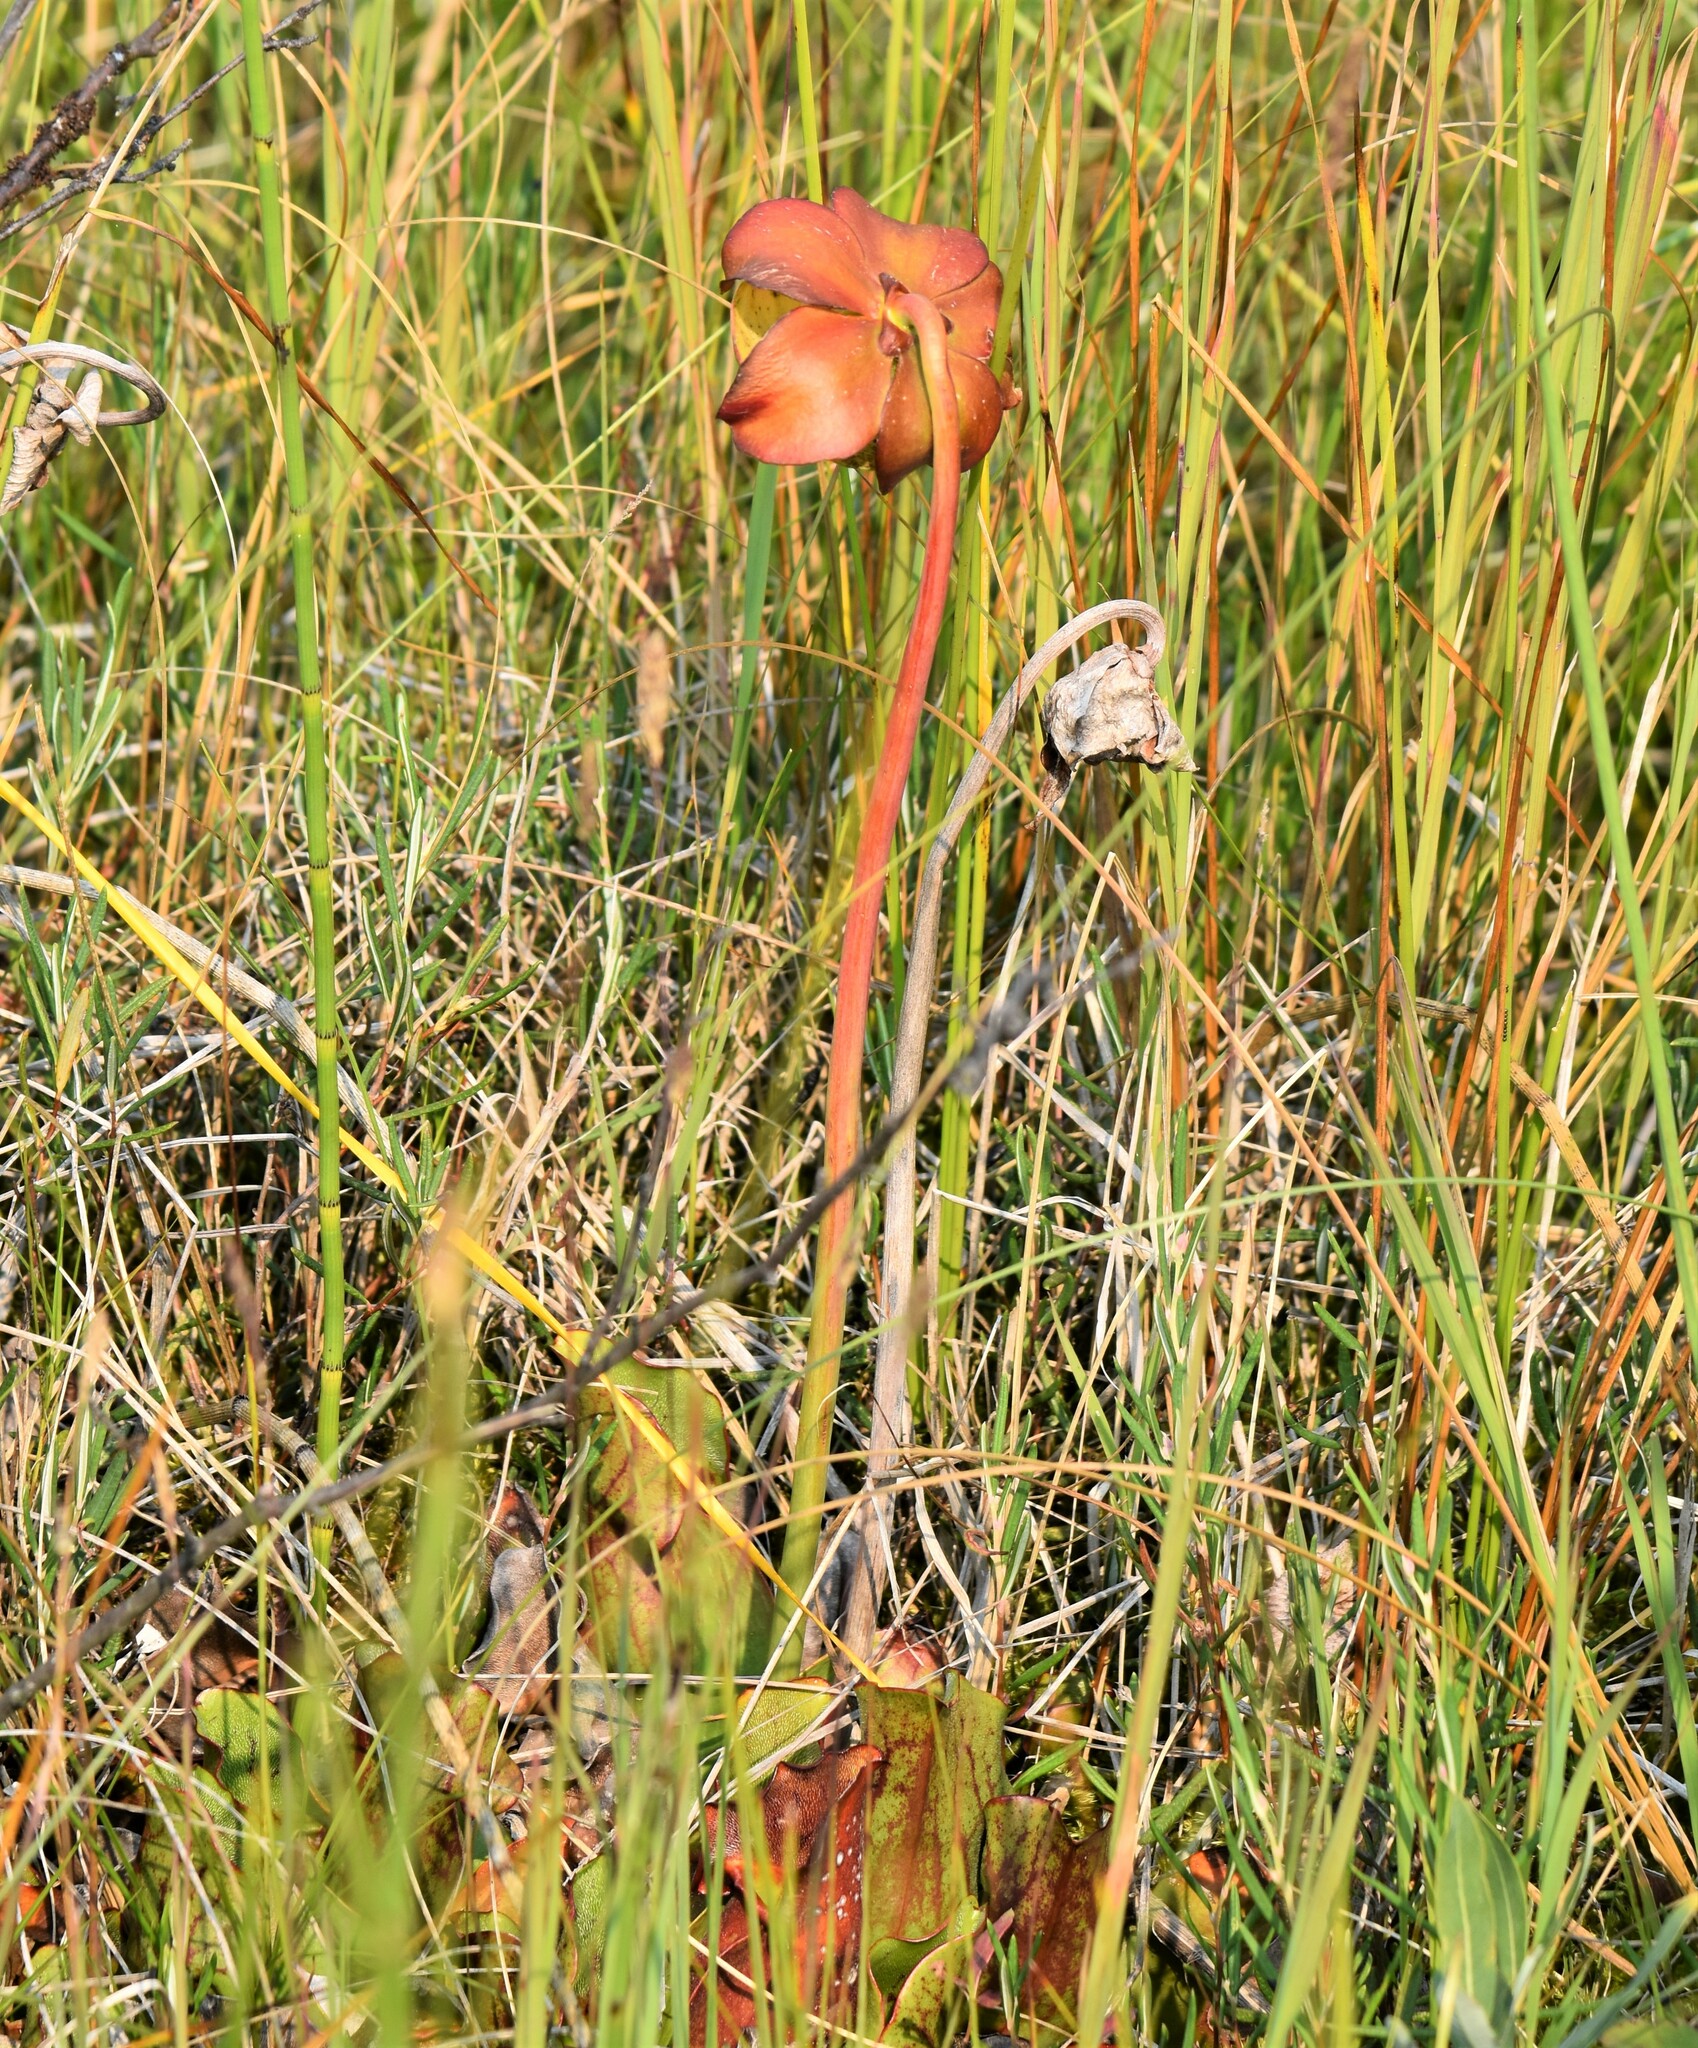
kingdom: Plantae
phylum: Tracheophyta
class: Magnoliopsida
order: Ericales
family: Sarraceniaceae
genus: Sarracenia
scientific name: Sarracenia purpurea
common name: Pitcherplant
